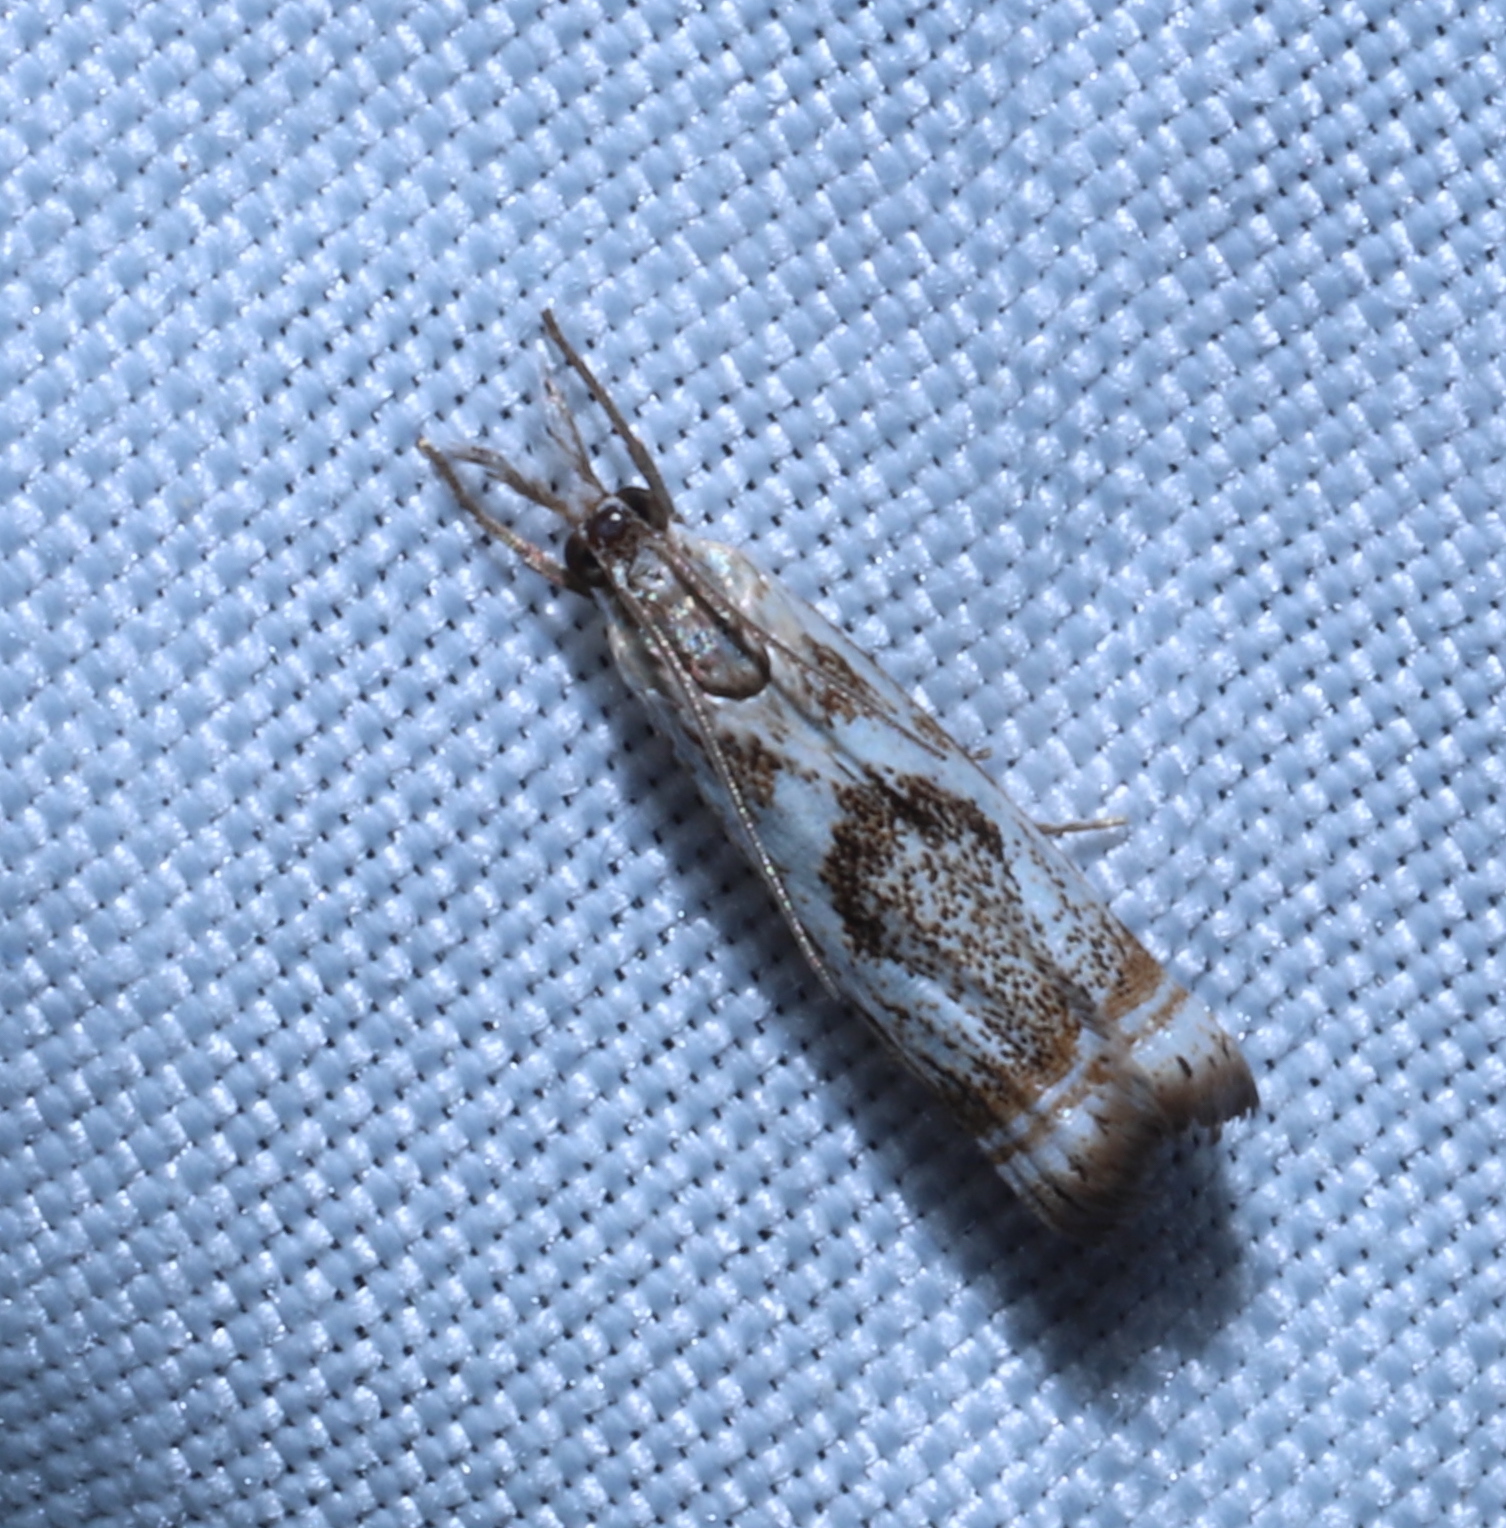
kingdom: Animalia
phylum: Arthropoda
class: Insecta
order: Lepidoptera
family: Crambidae
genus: Microcrambus
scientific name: Microcrambus elegans
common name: Elegant grass-veneer
